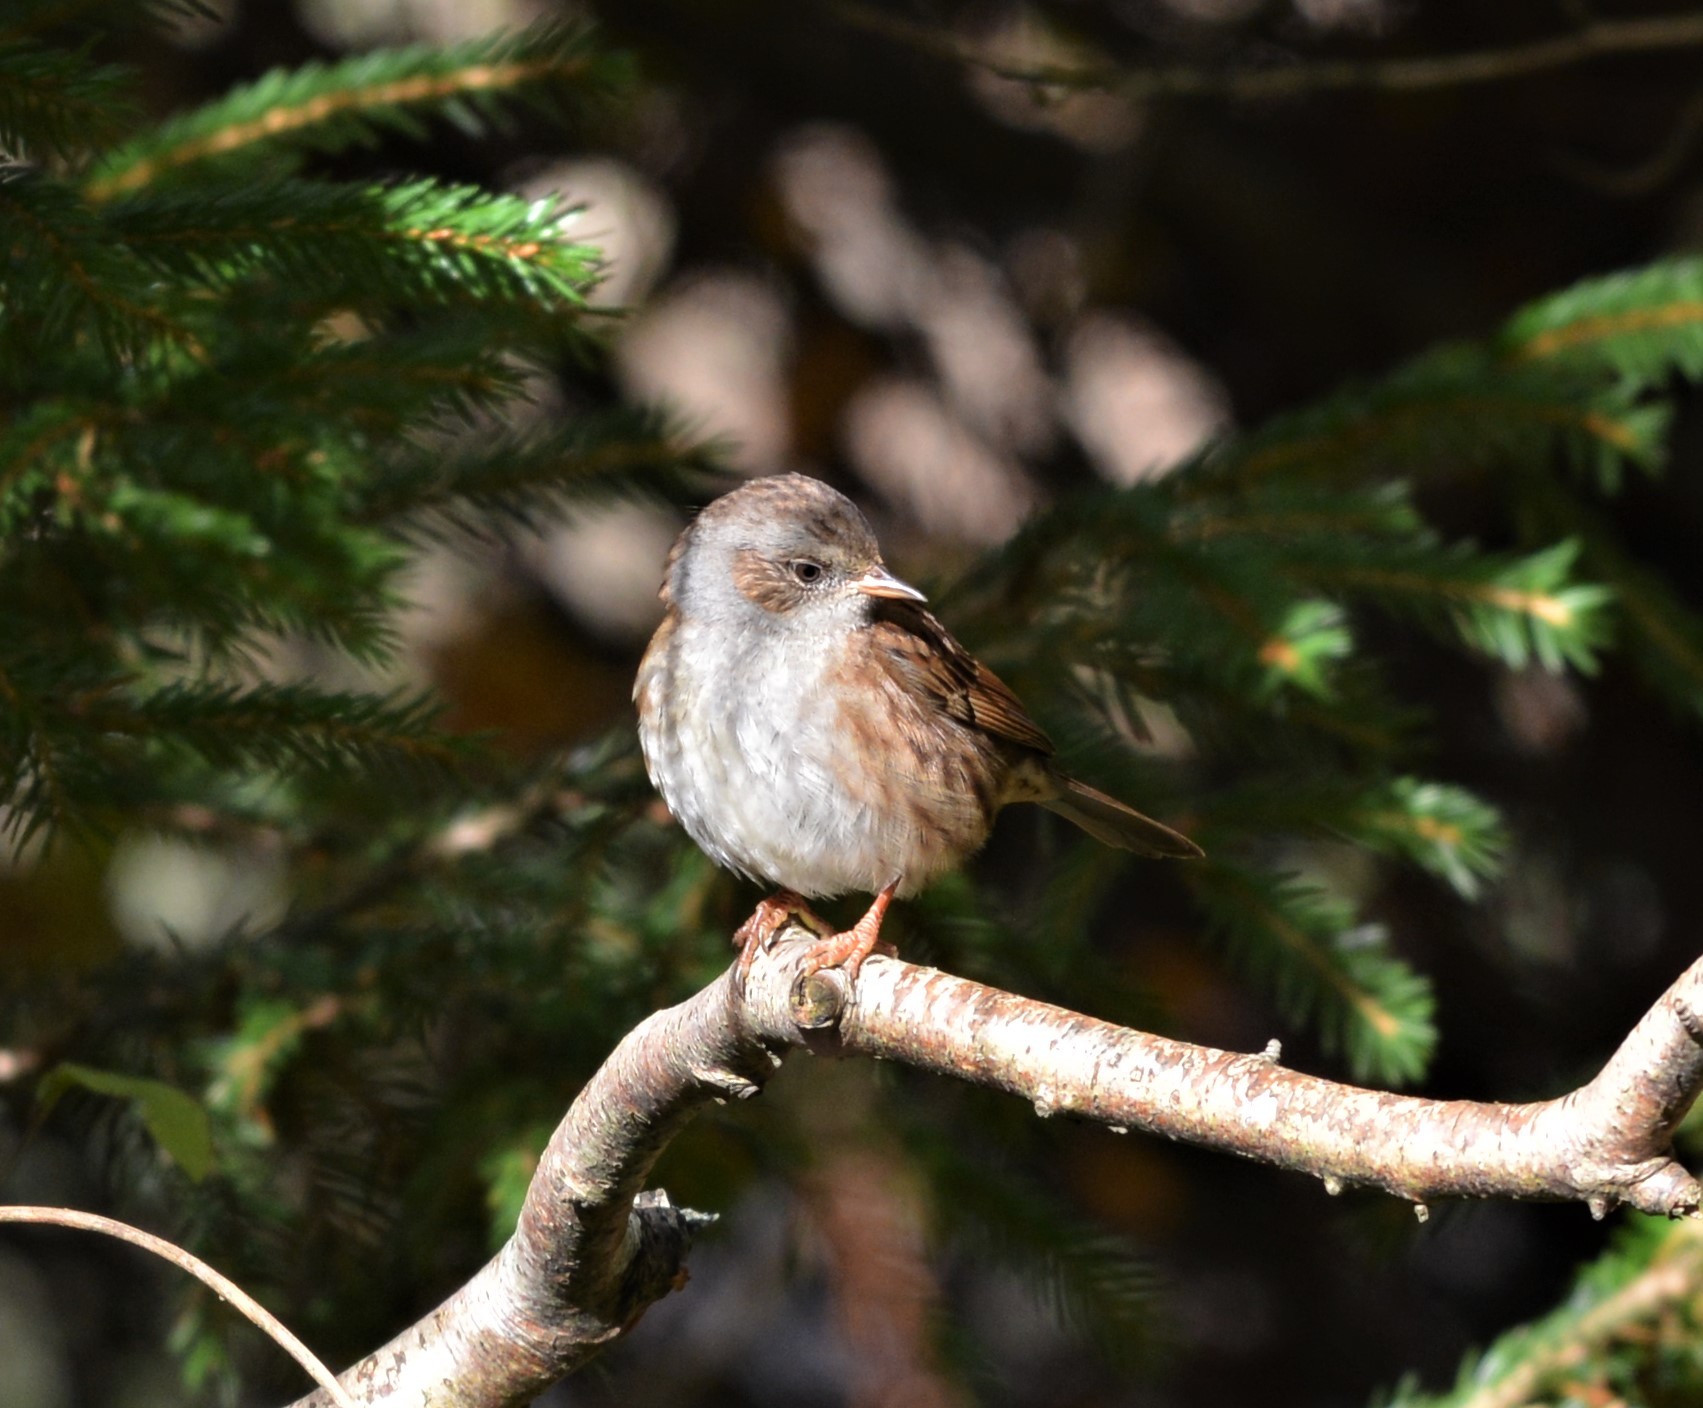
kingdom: Animalia
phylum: Chordata
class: Aves
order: Passeriformes
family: Prunellidae
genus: Prunella
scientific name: Prunella modularis
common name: Dunnock
